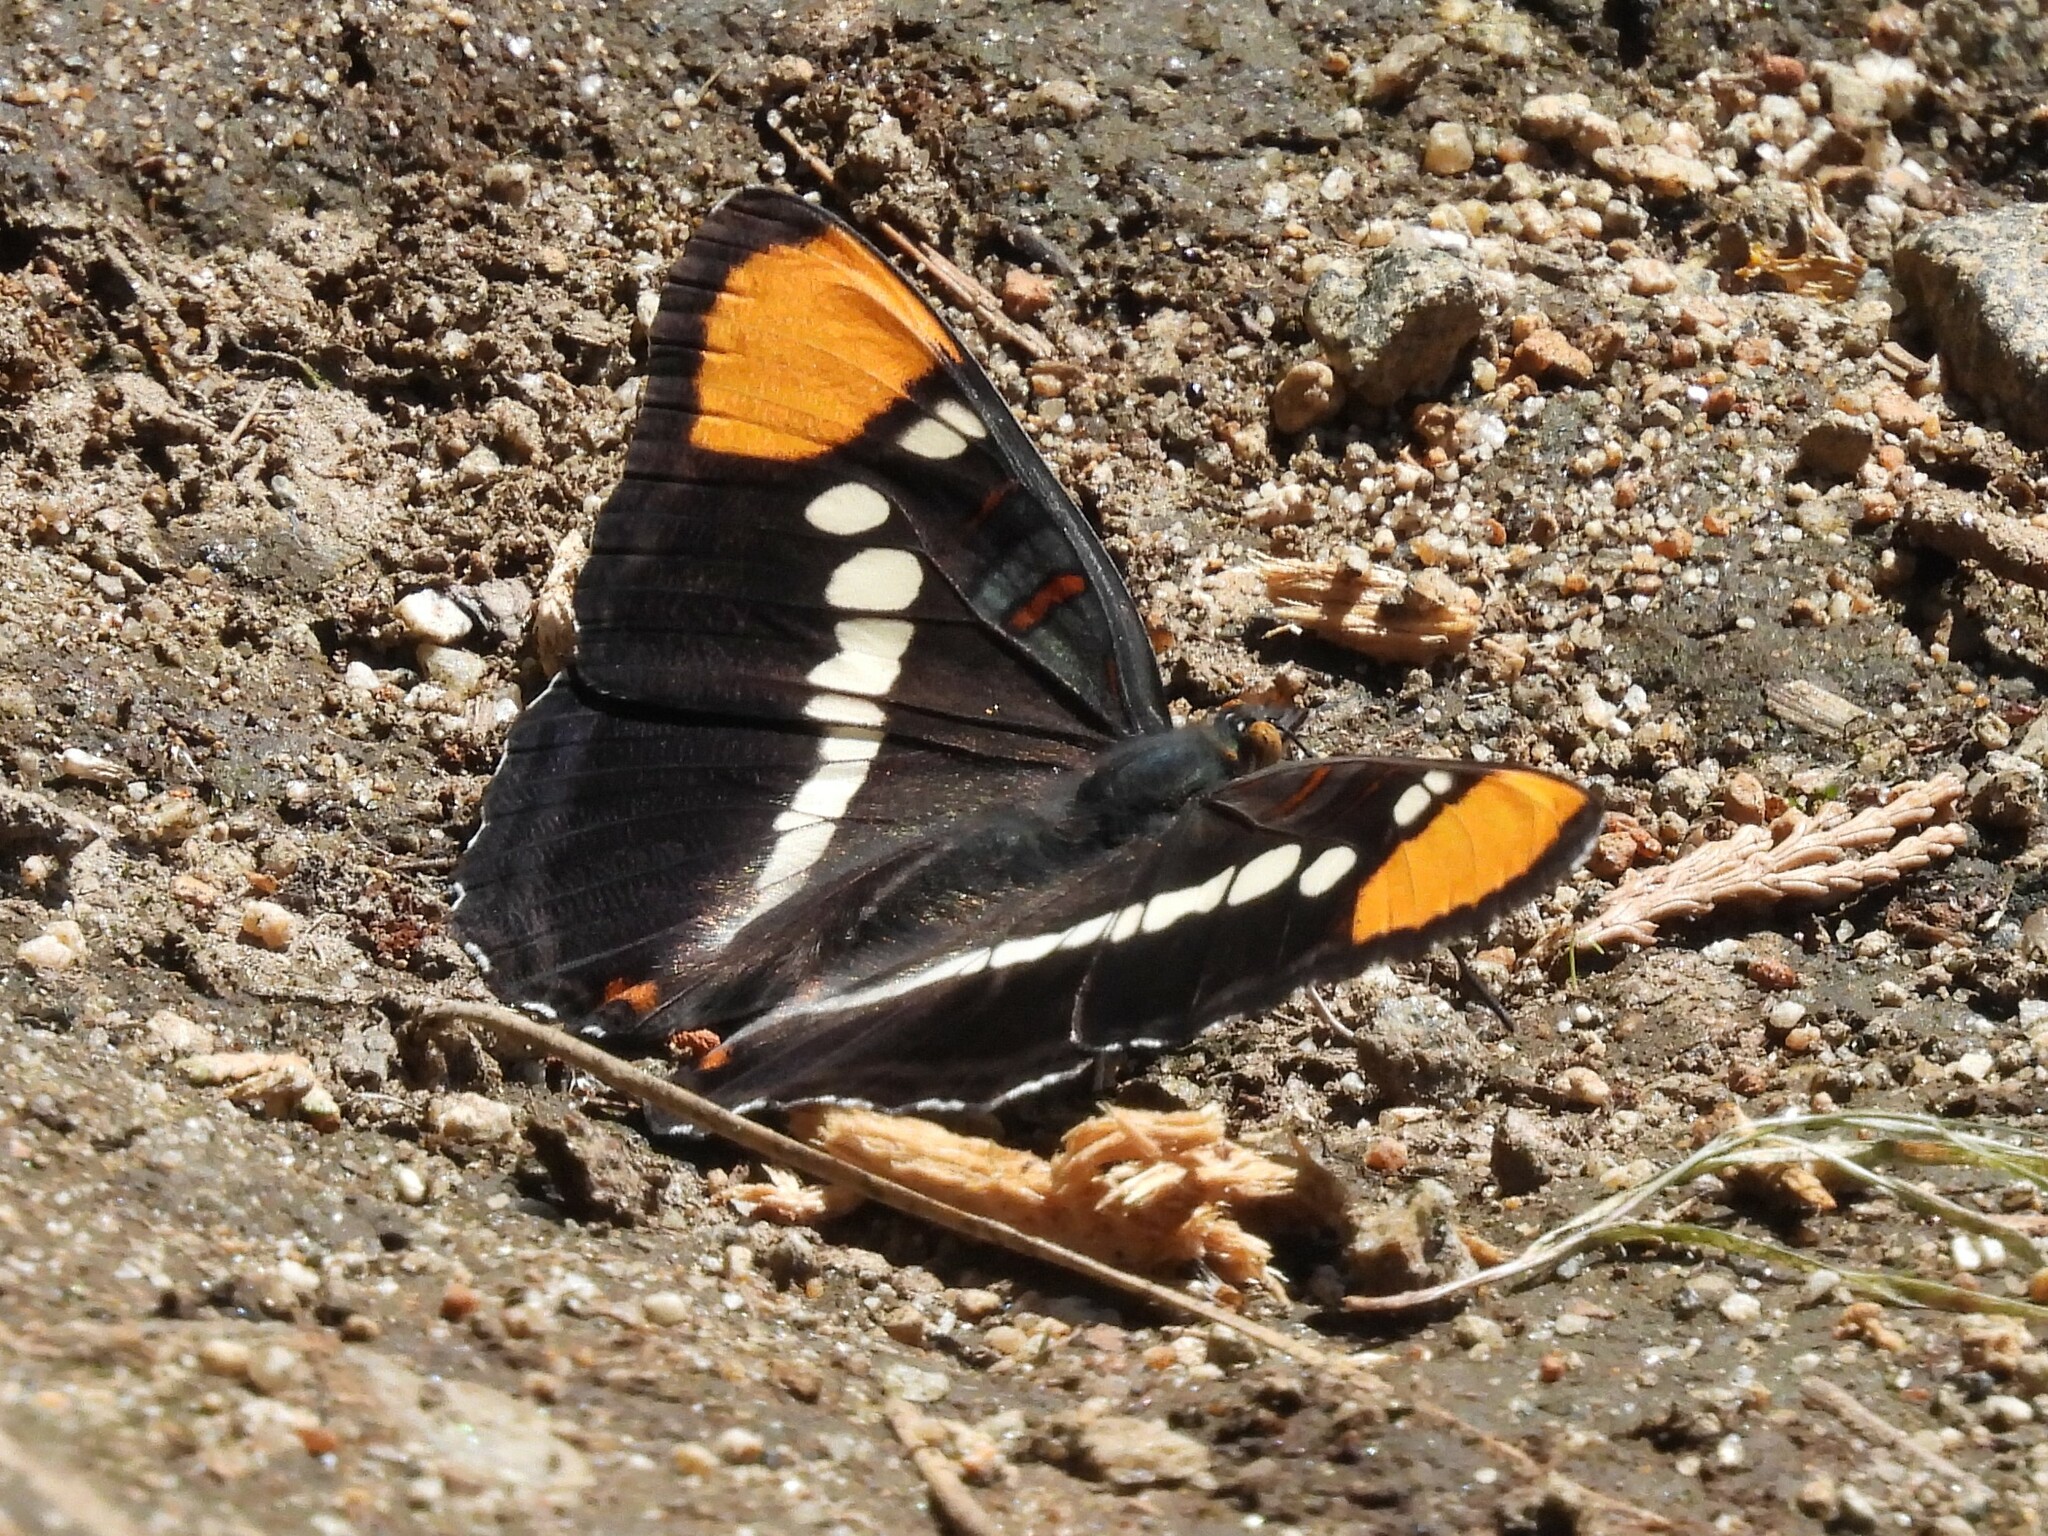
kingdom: Animalia
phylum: Arthropoda
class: Insecta
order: Lepidoptera
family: Nymphalidae
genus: Limenitis
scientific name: Limenitis bredowii
